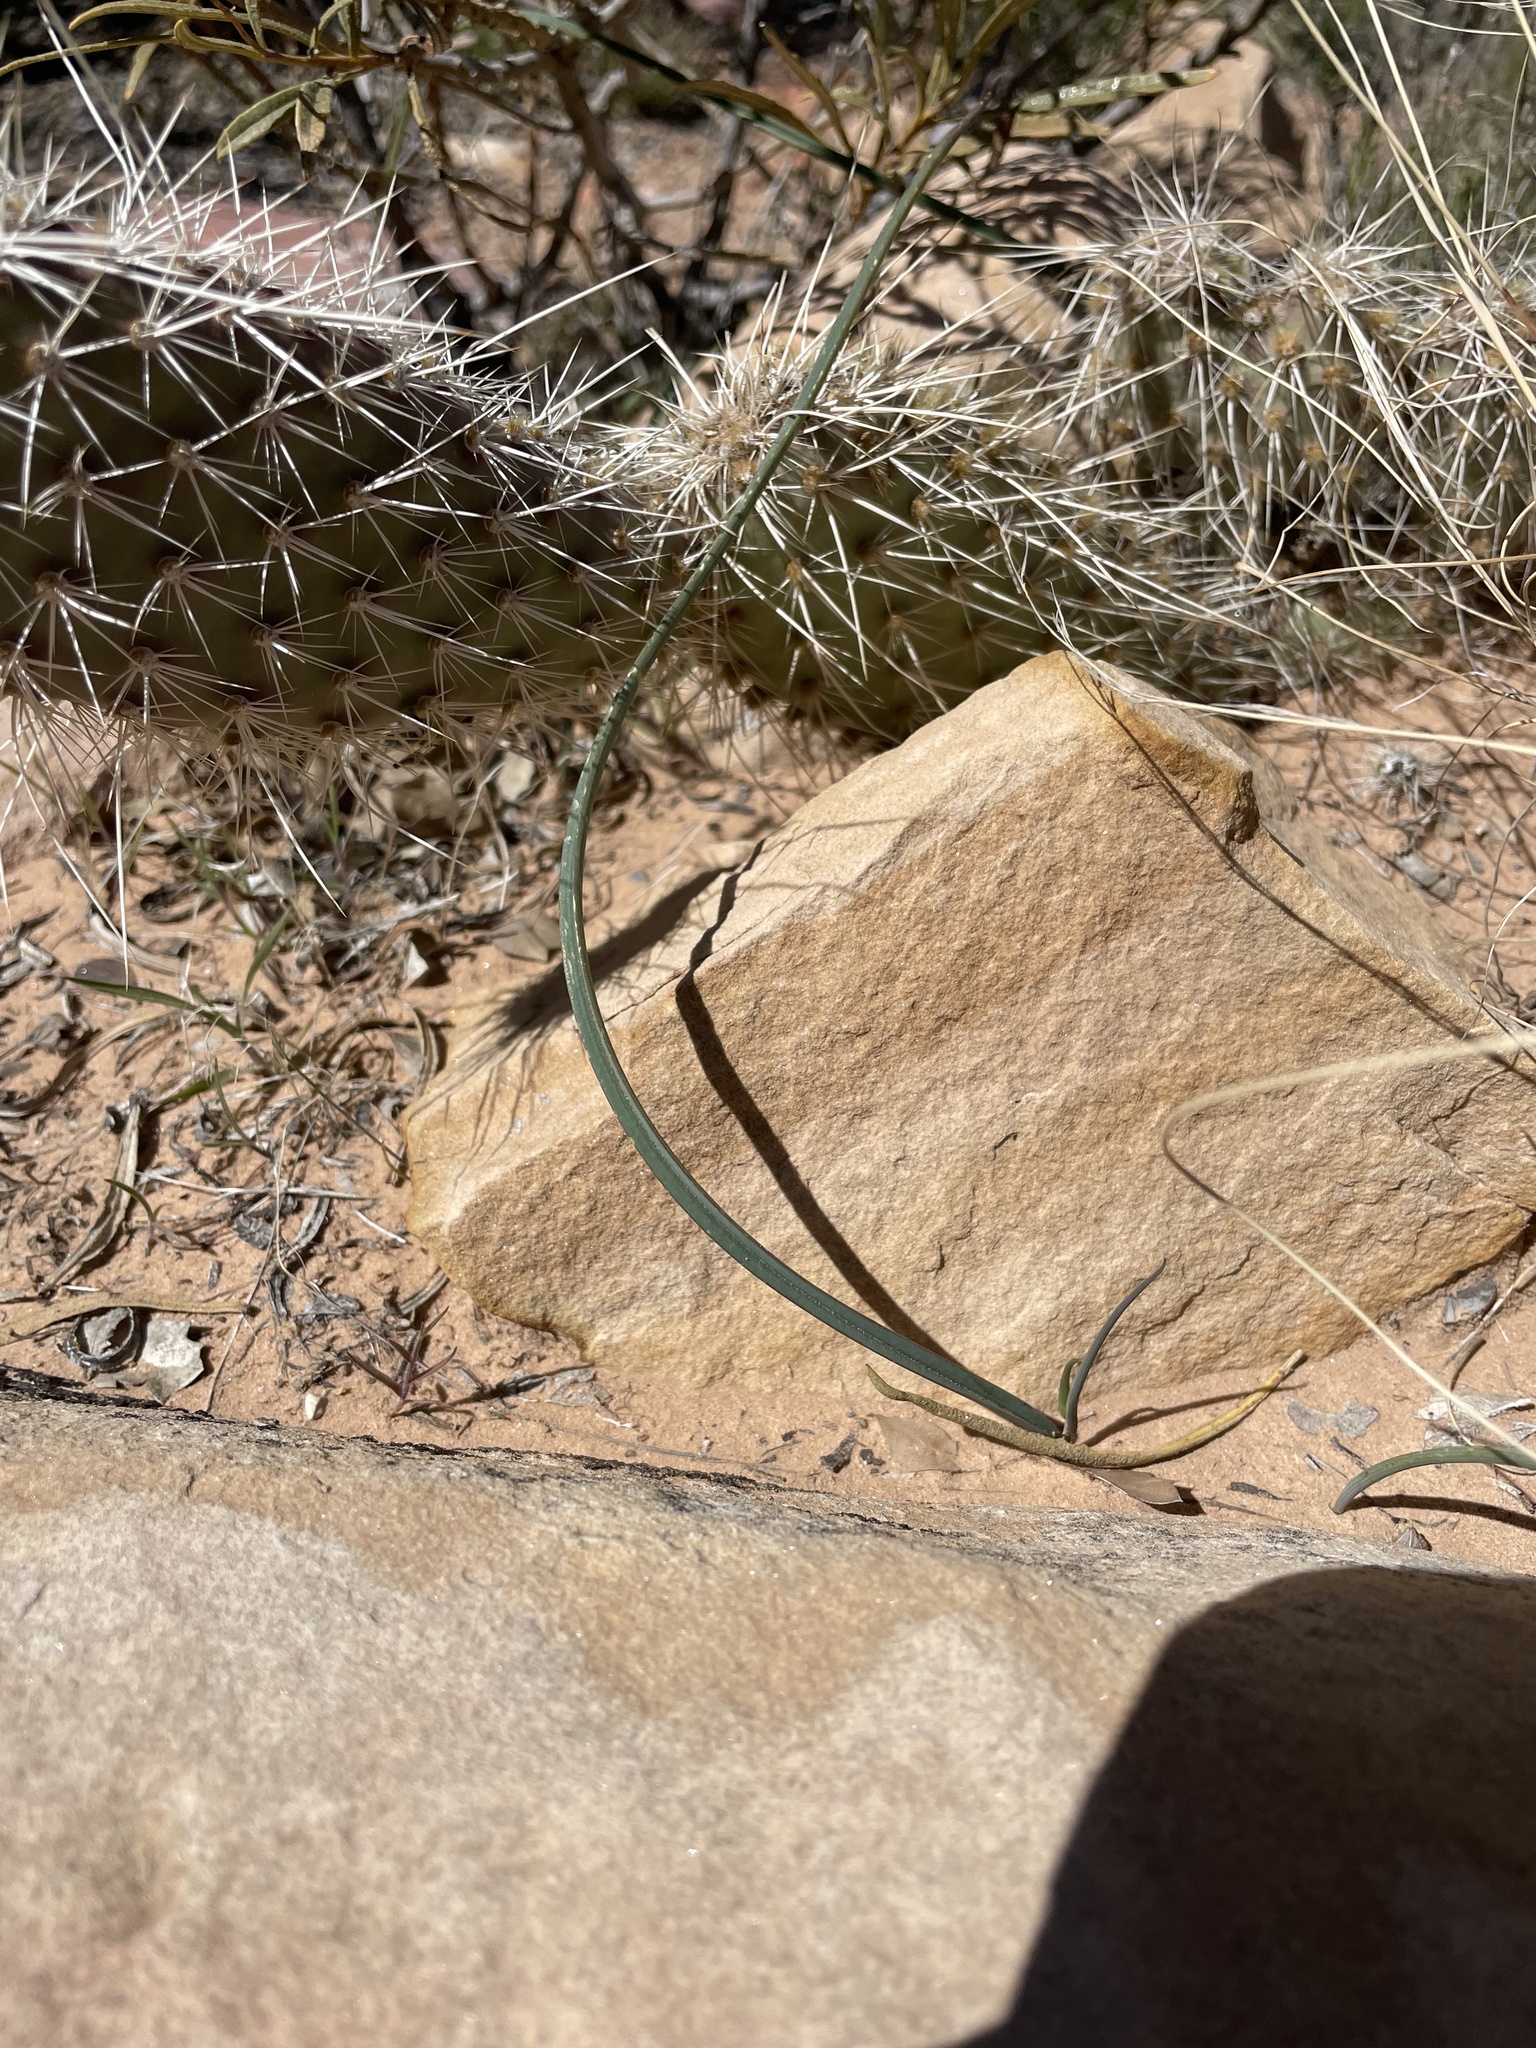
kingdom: Plantae
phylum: Tracheophyta
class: Liliopsida
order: Liliales
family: Liliaceae
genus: Calochortus
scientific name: Calochortus flexuosus
